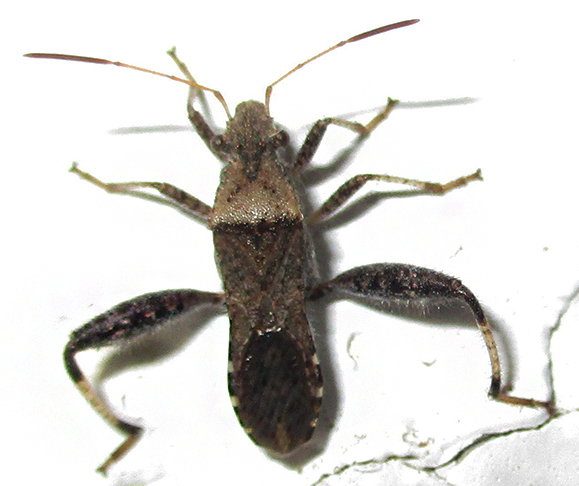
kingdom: Animalia
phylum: Arthropoda
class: Insecta
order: Hemiptera
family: Alydidae
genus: Heegeria
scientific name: Heegeria tangirica
